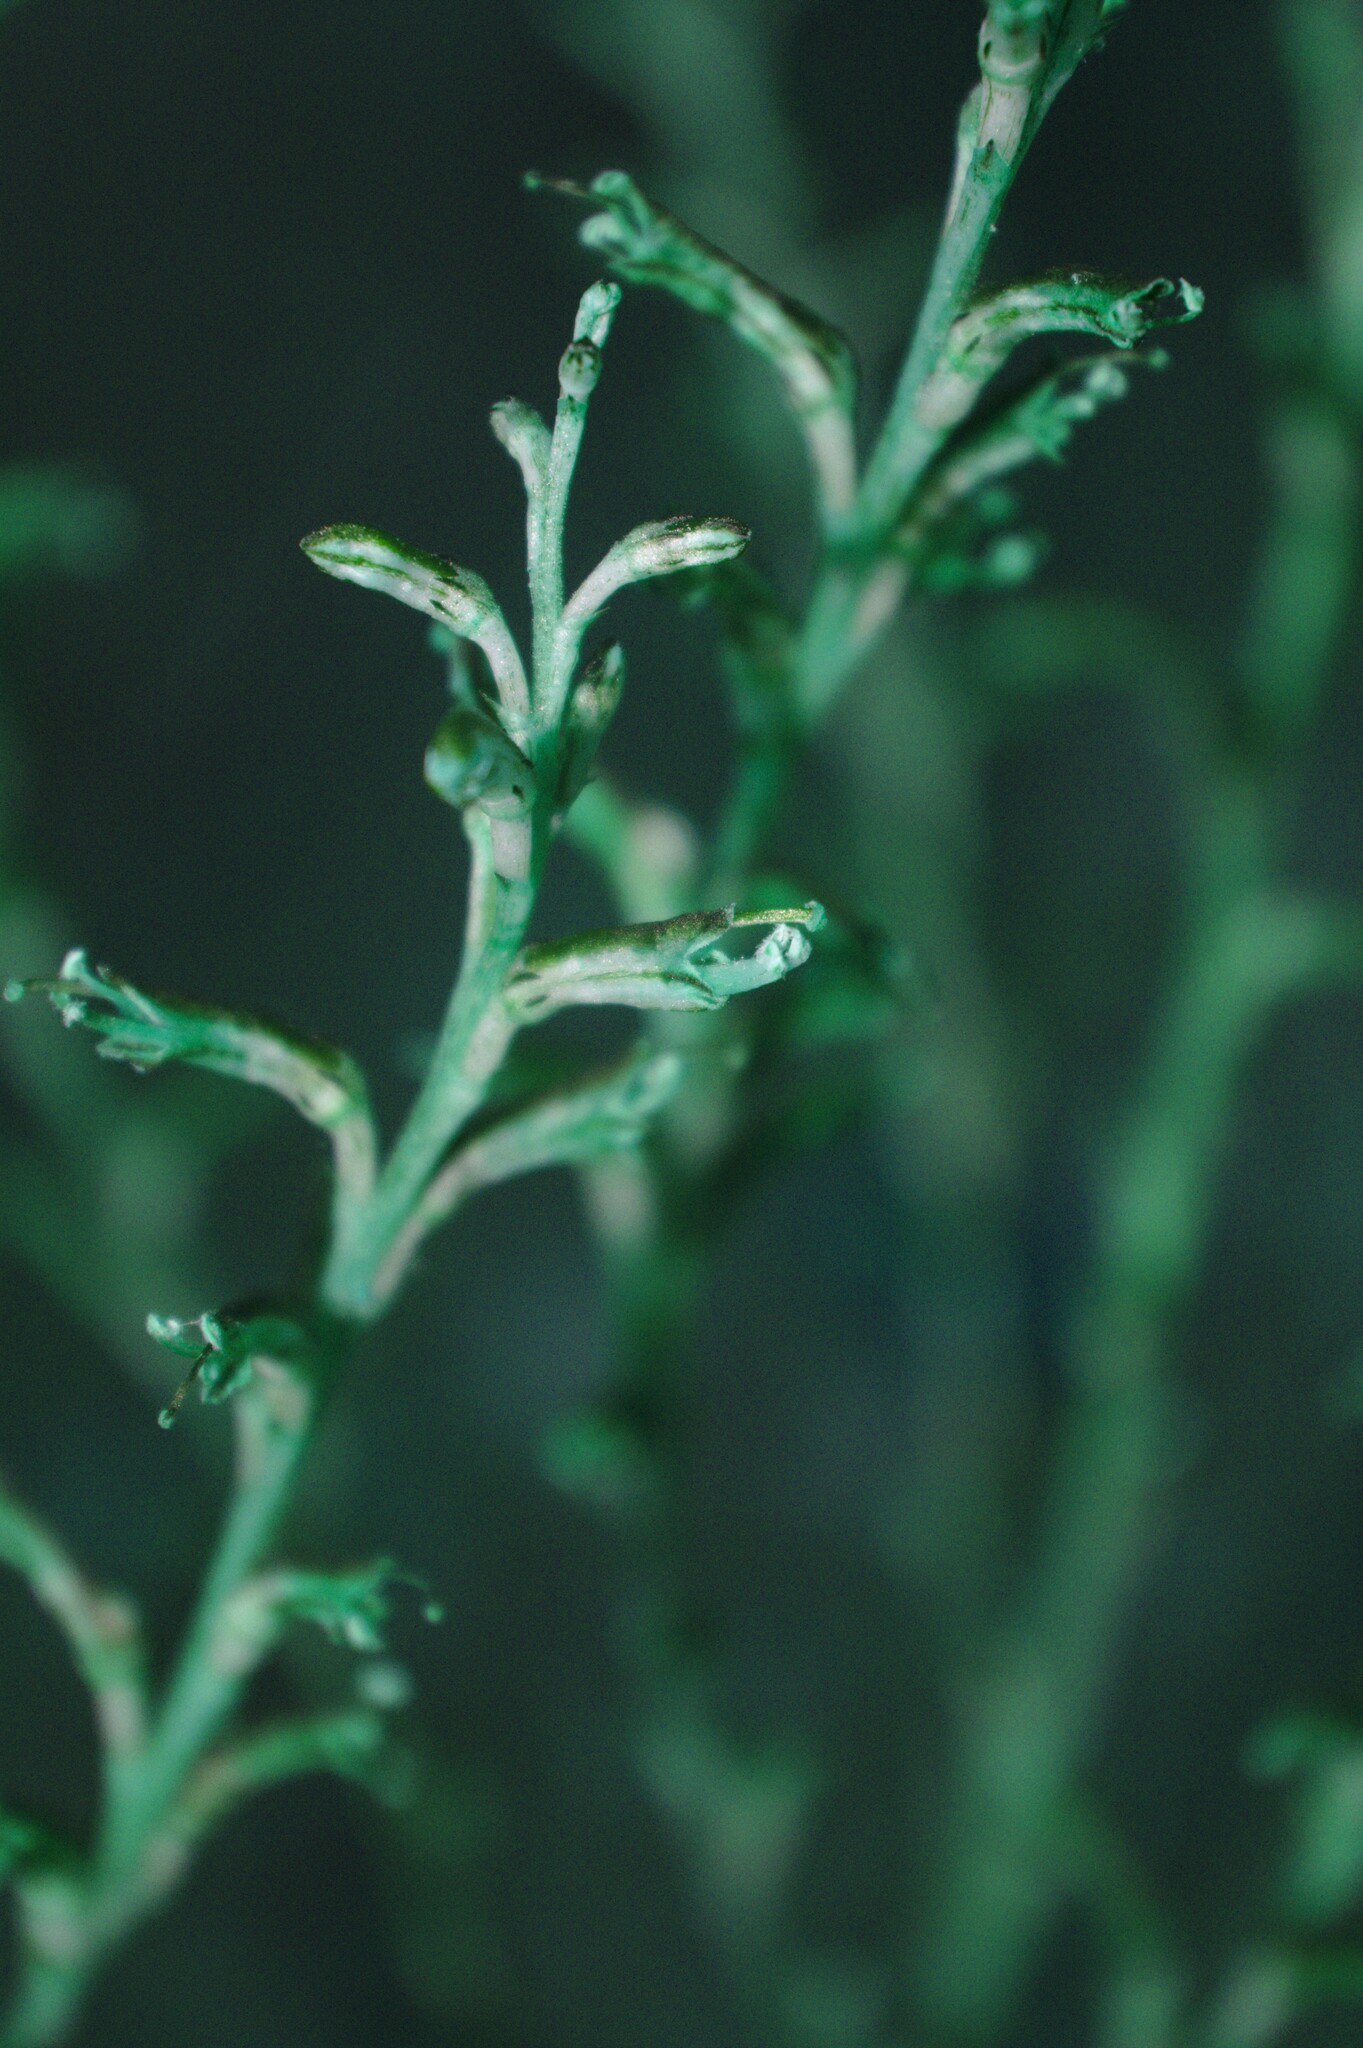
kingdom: Plantae
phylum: Tracheophyta
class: Magnoliopsida
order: Lamiales
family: Orobanchaceae
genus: Epifagus
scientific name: Epifagus virginiana
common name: Beechdrops
